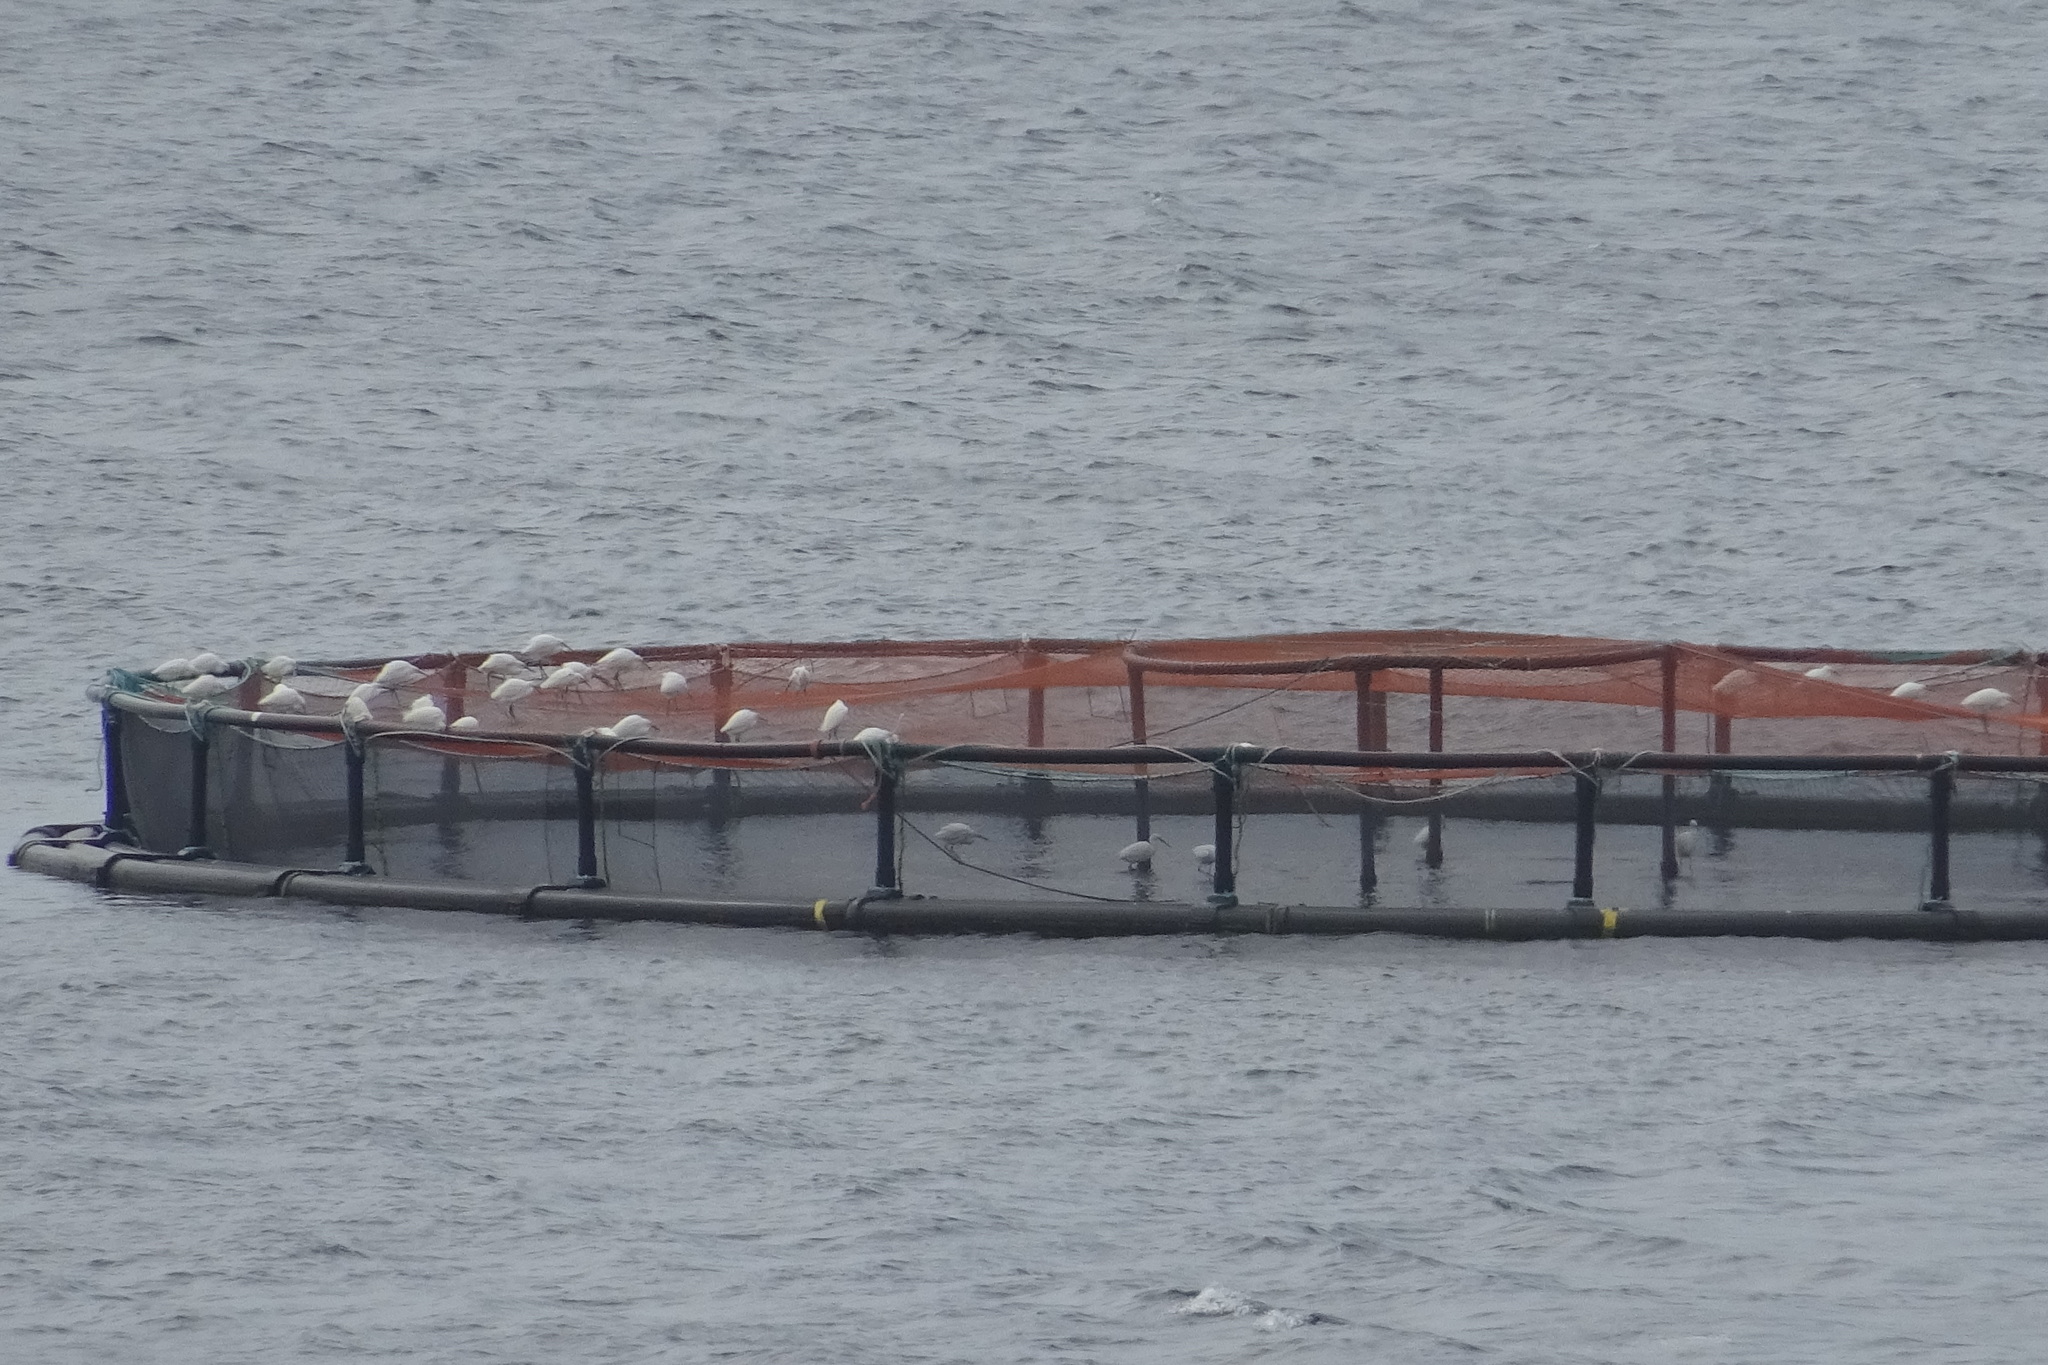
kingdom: Animalia
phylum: Chordata
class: Aves
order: Pelecaniformes
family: Ardeidae
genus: Egretta
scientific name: Egretta garzetta
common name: Little egret
